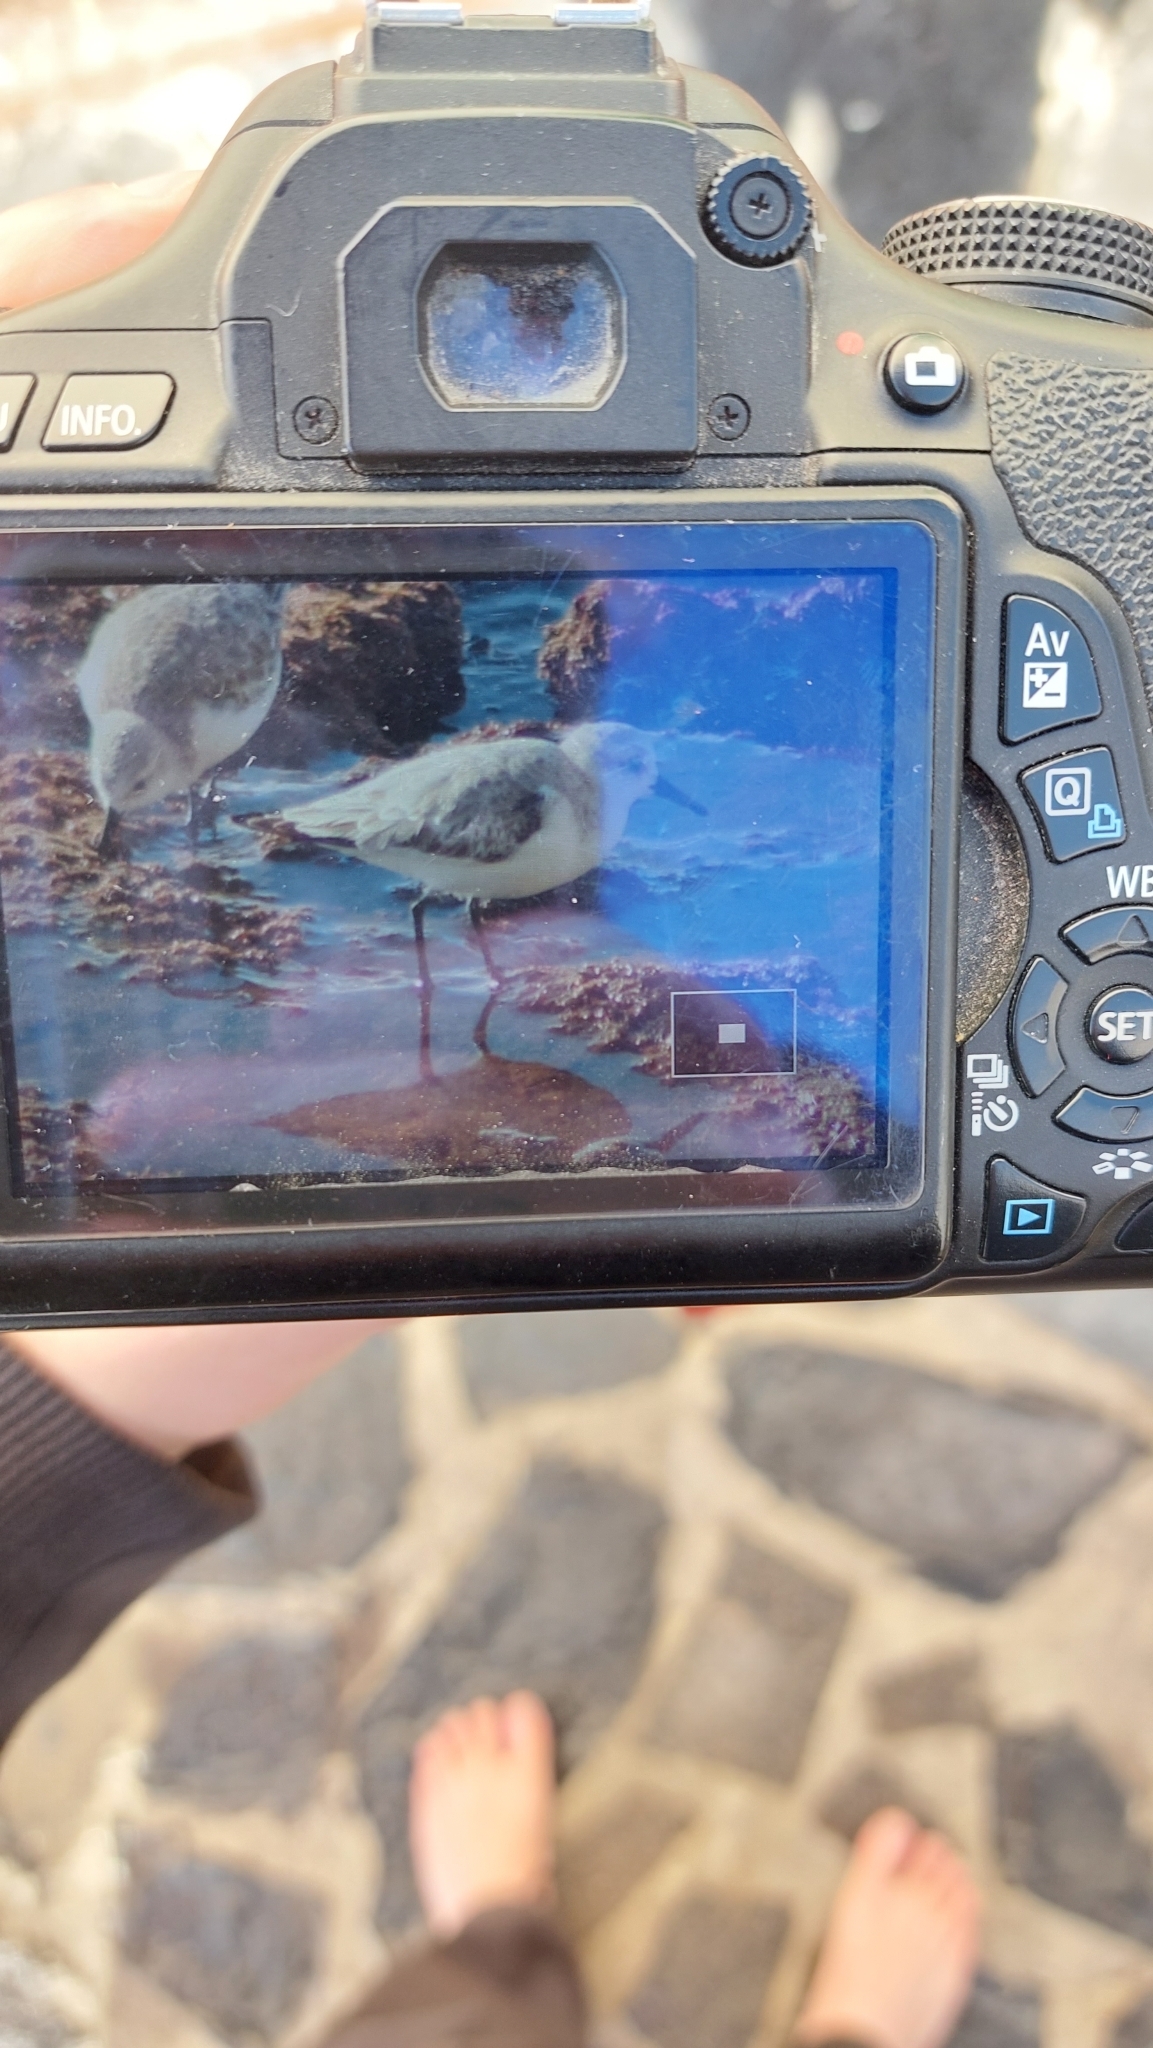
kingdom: Animalia
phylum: Chordata
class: Aves
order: Charadriiformes
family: Scolopacidae
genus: Calidris
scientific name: Calidris alba
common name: Sanderling
